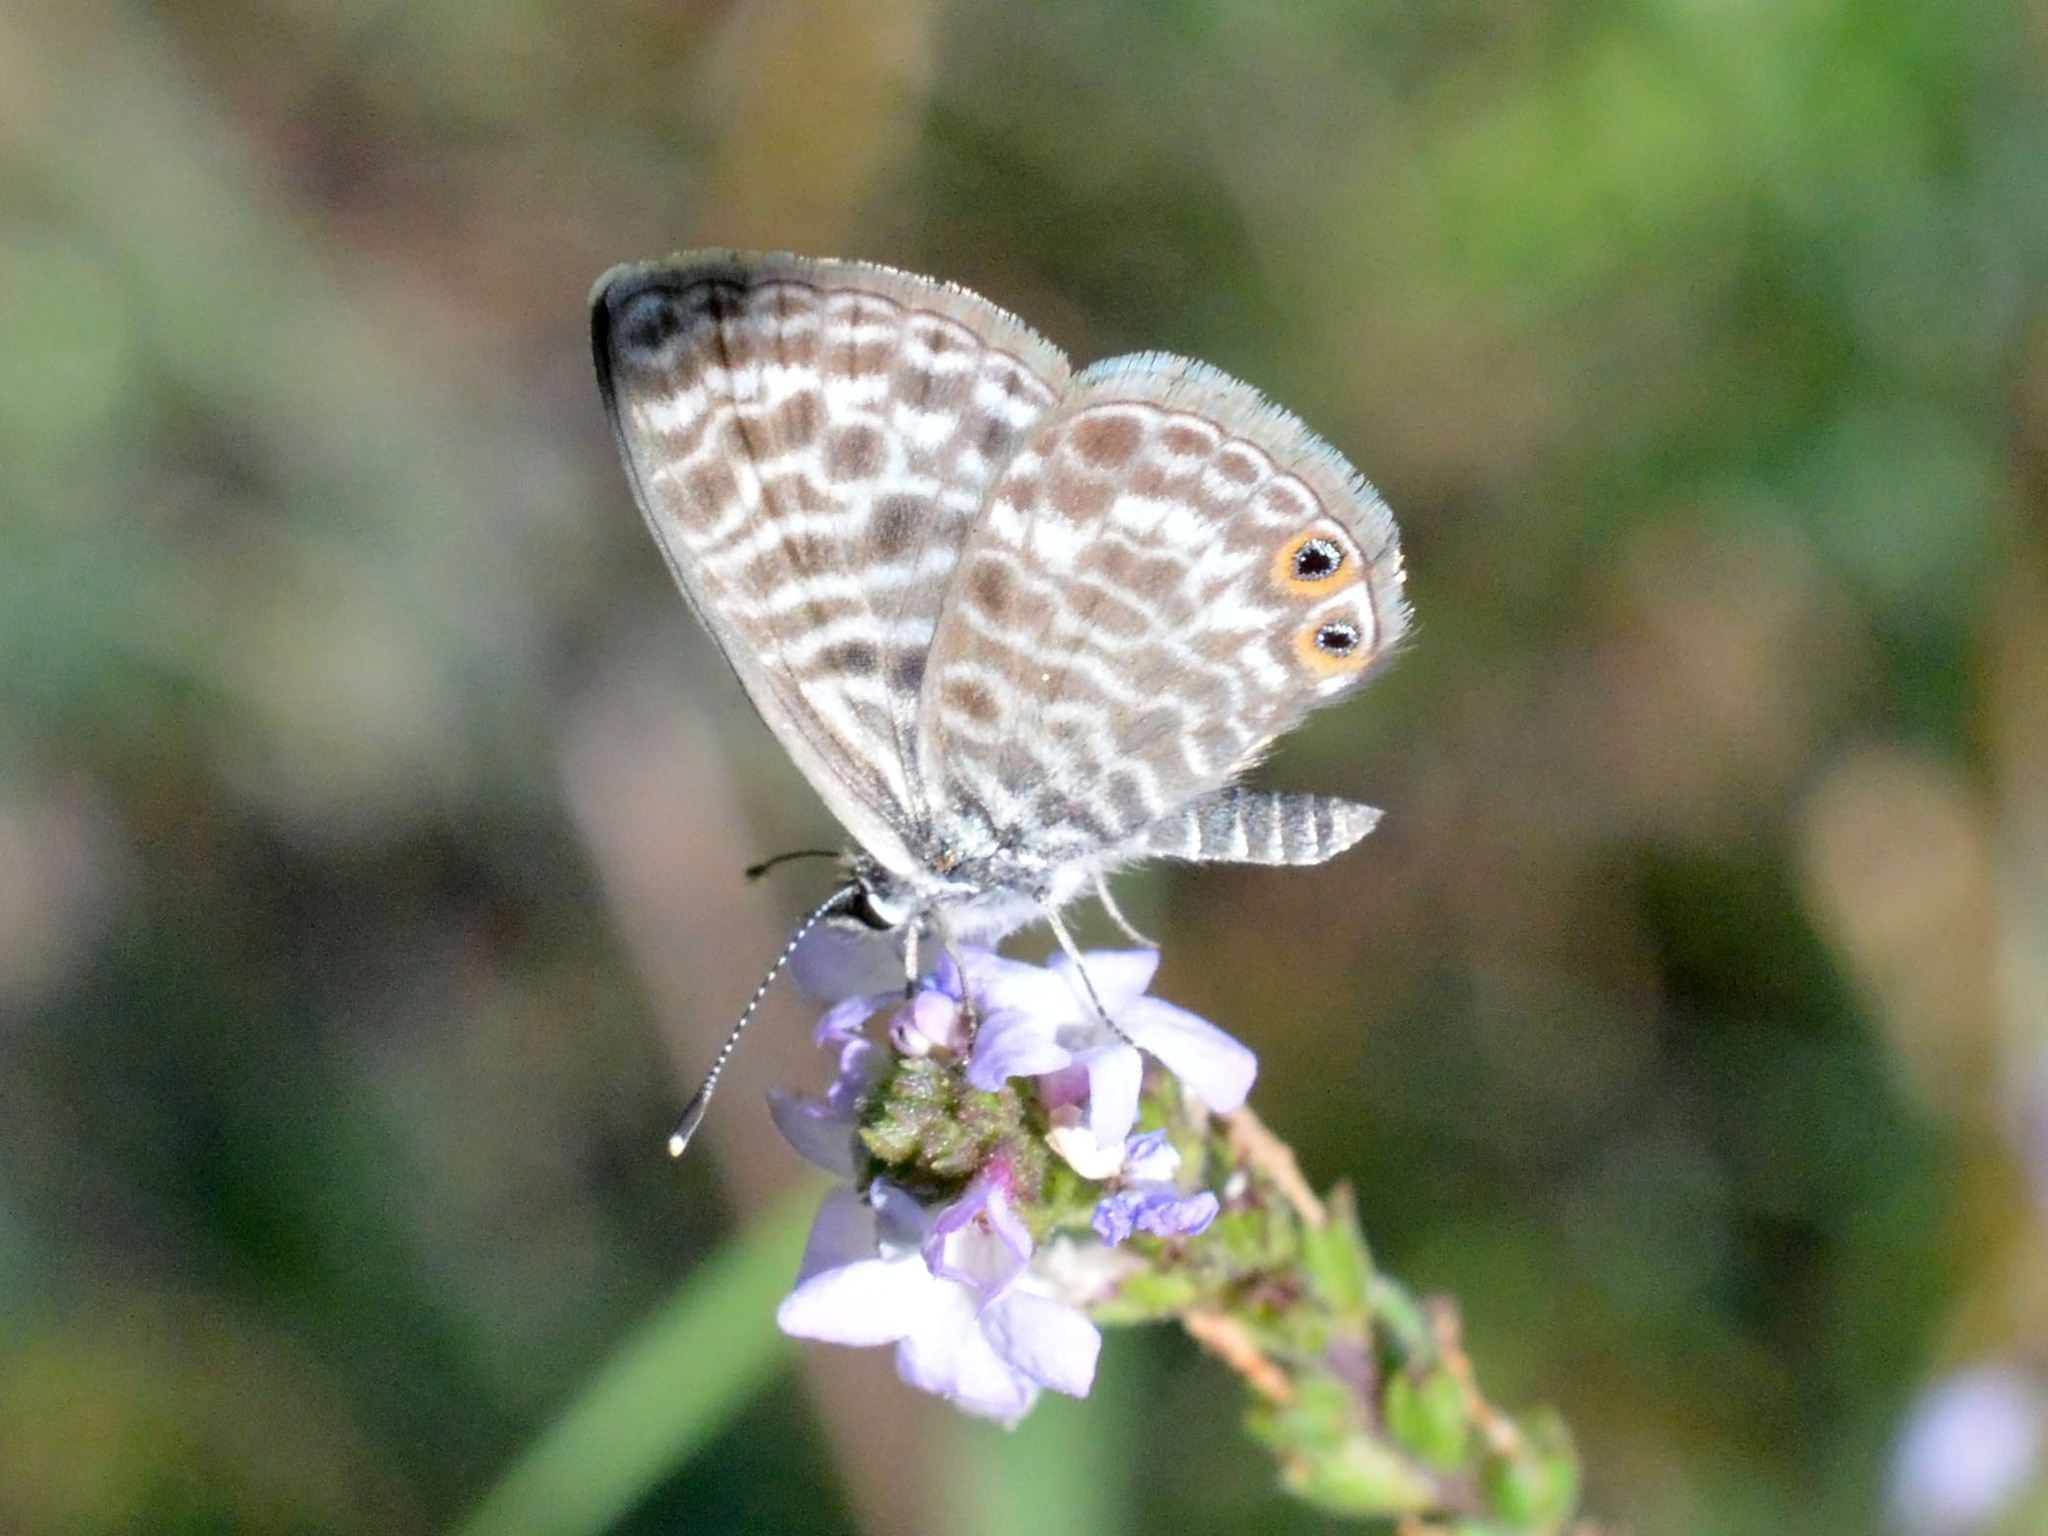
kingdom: Animalia
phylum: Arthropoda
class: Insecta
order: Lepidoptera
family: Lycaenidae
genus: Leptotes
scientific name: Leptotes pirithous
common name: Lang's short-tailed blue
